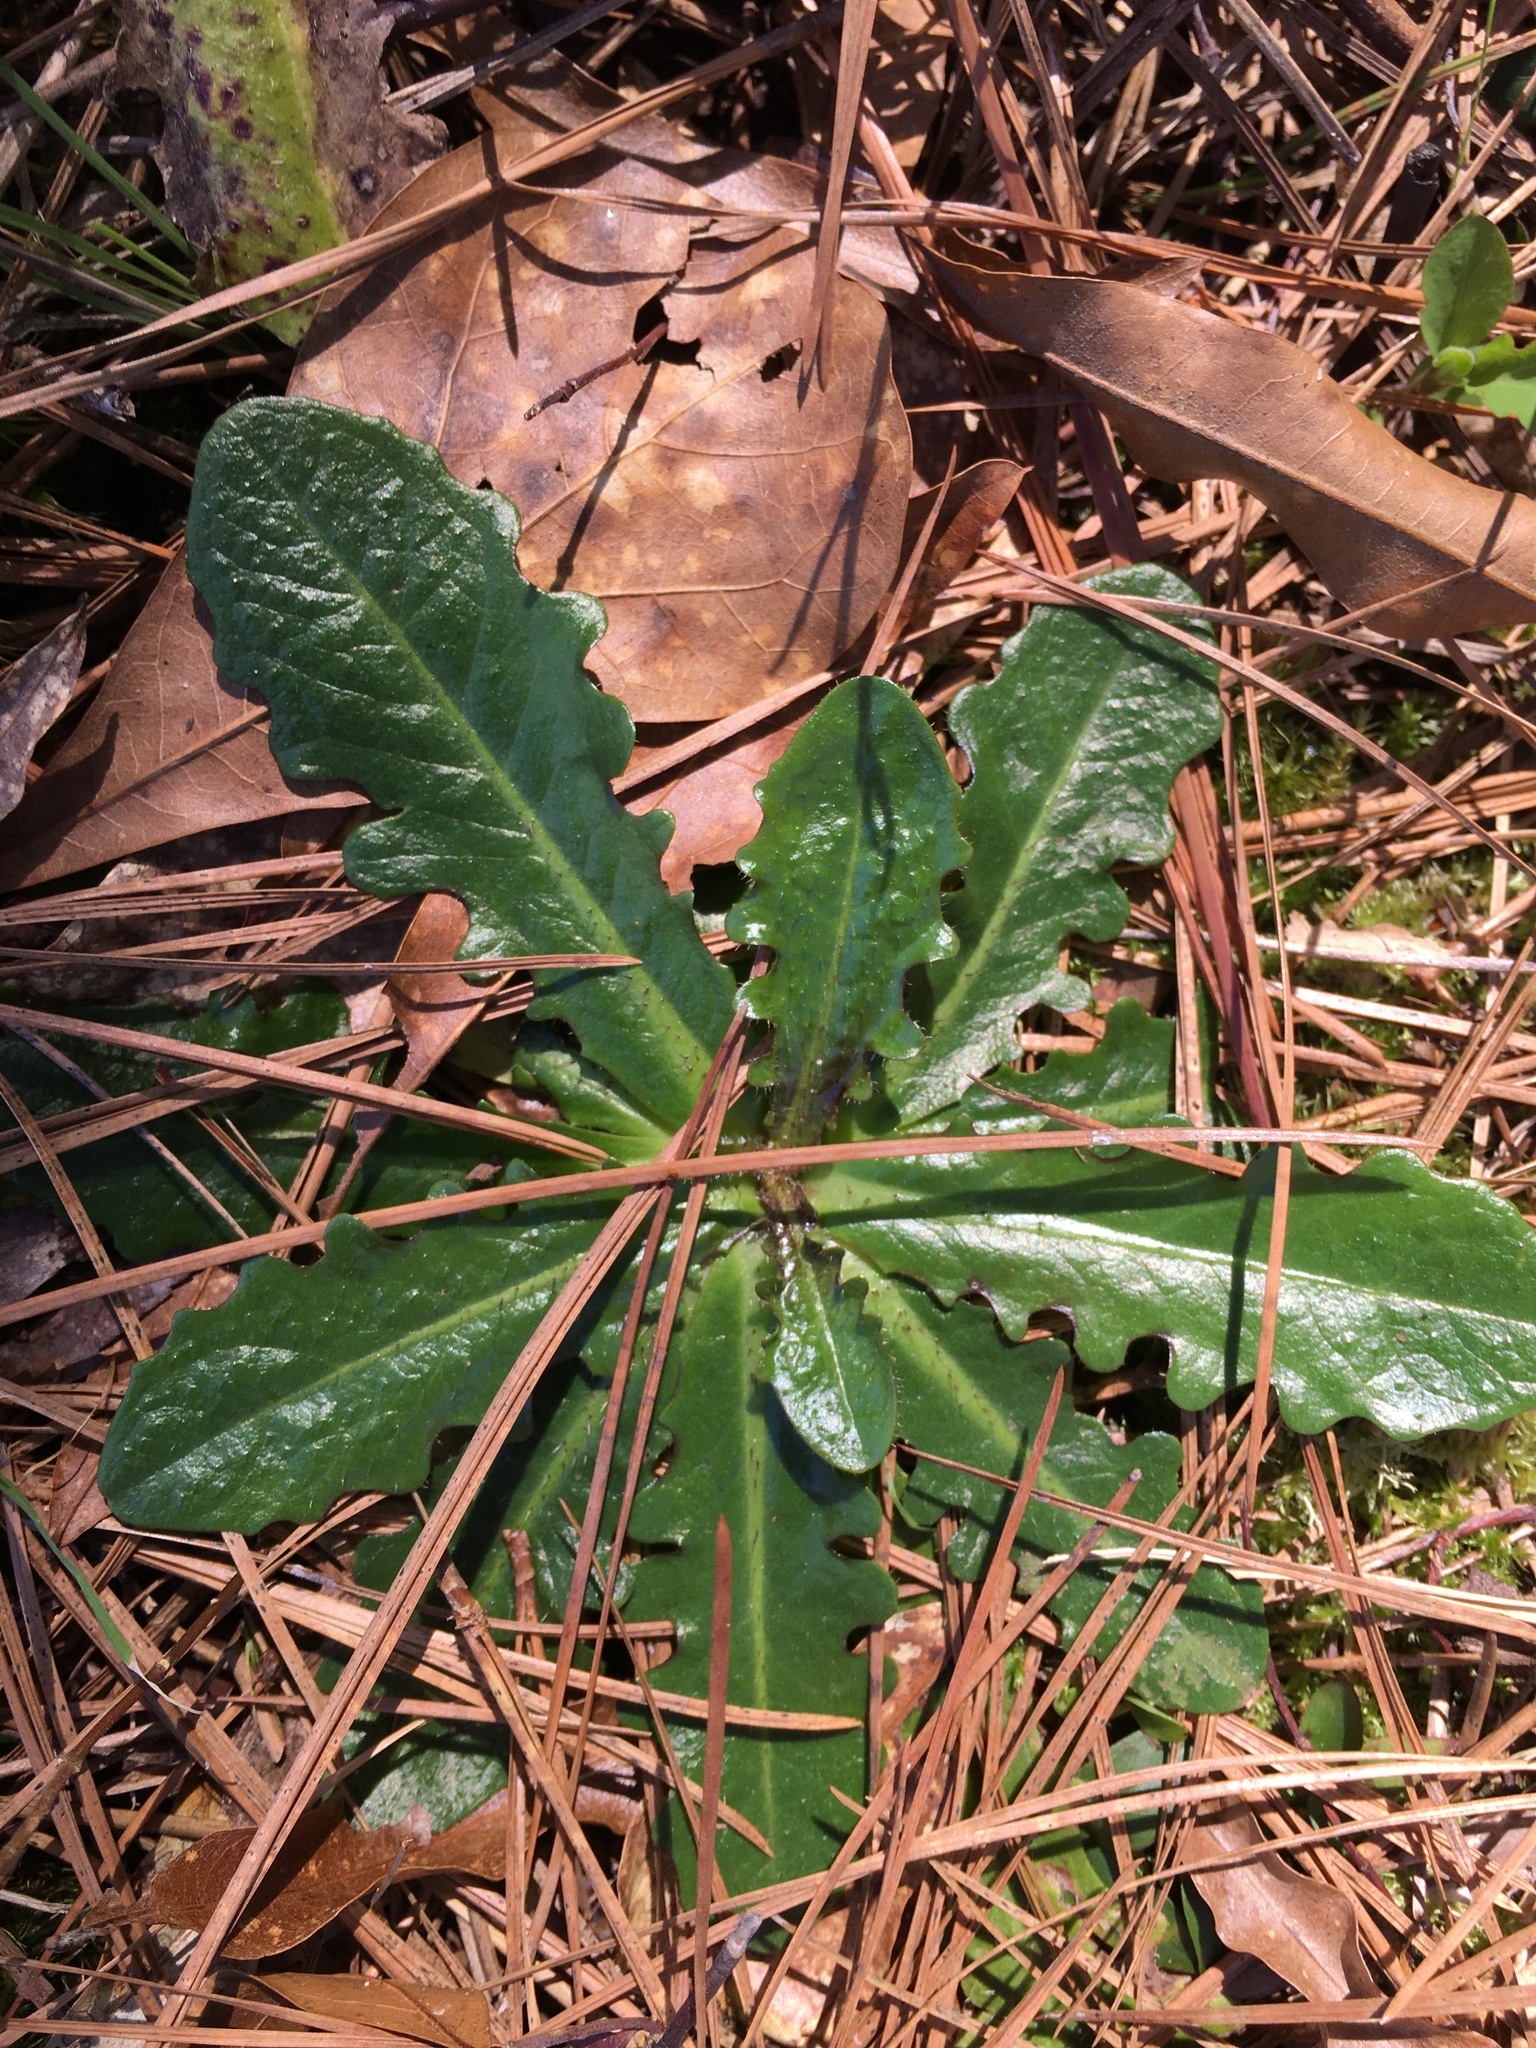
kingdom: Plantae
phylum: Tracheophyta
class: Magnoliopsida
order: Asterales
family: Asteraceae
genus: Hypochaeris
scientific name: Hypochaeris radicata
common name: Flatweed
